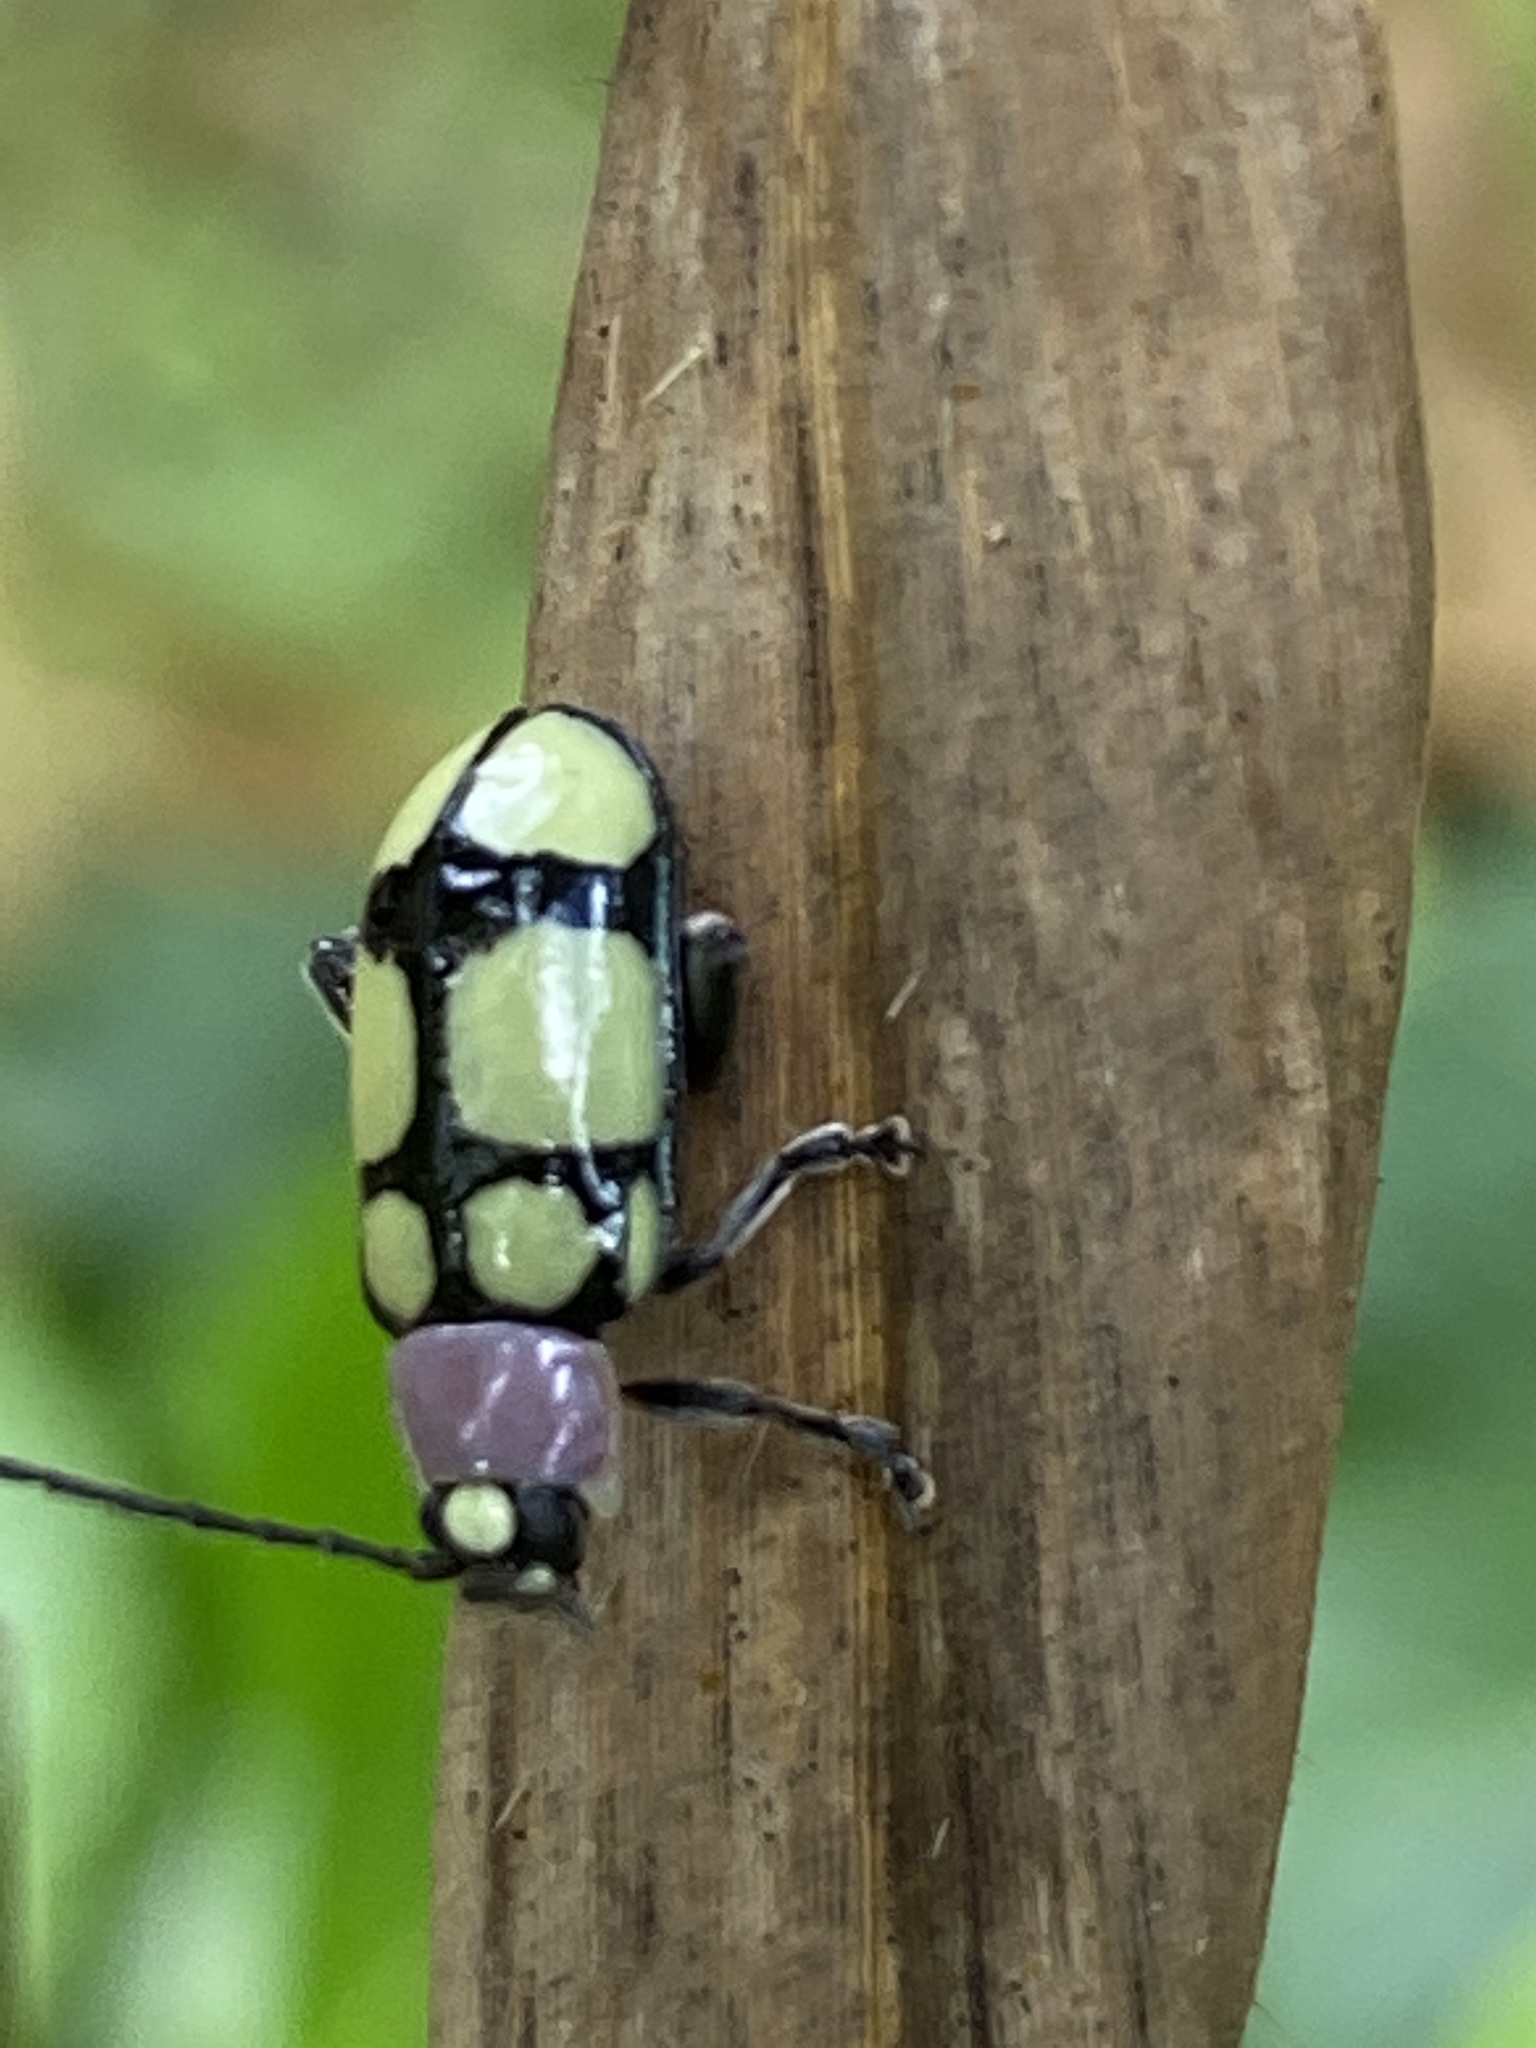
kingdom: Animalia
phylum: Arthropoda
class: Insecta
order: Coleoptera
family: Chrysomelidae
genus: Omophoita
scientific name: Omophoita
